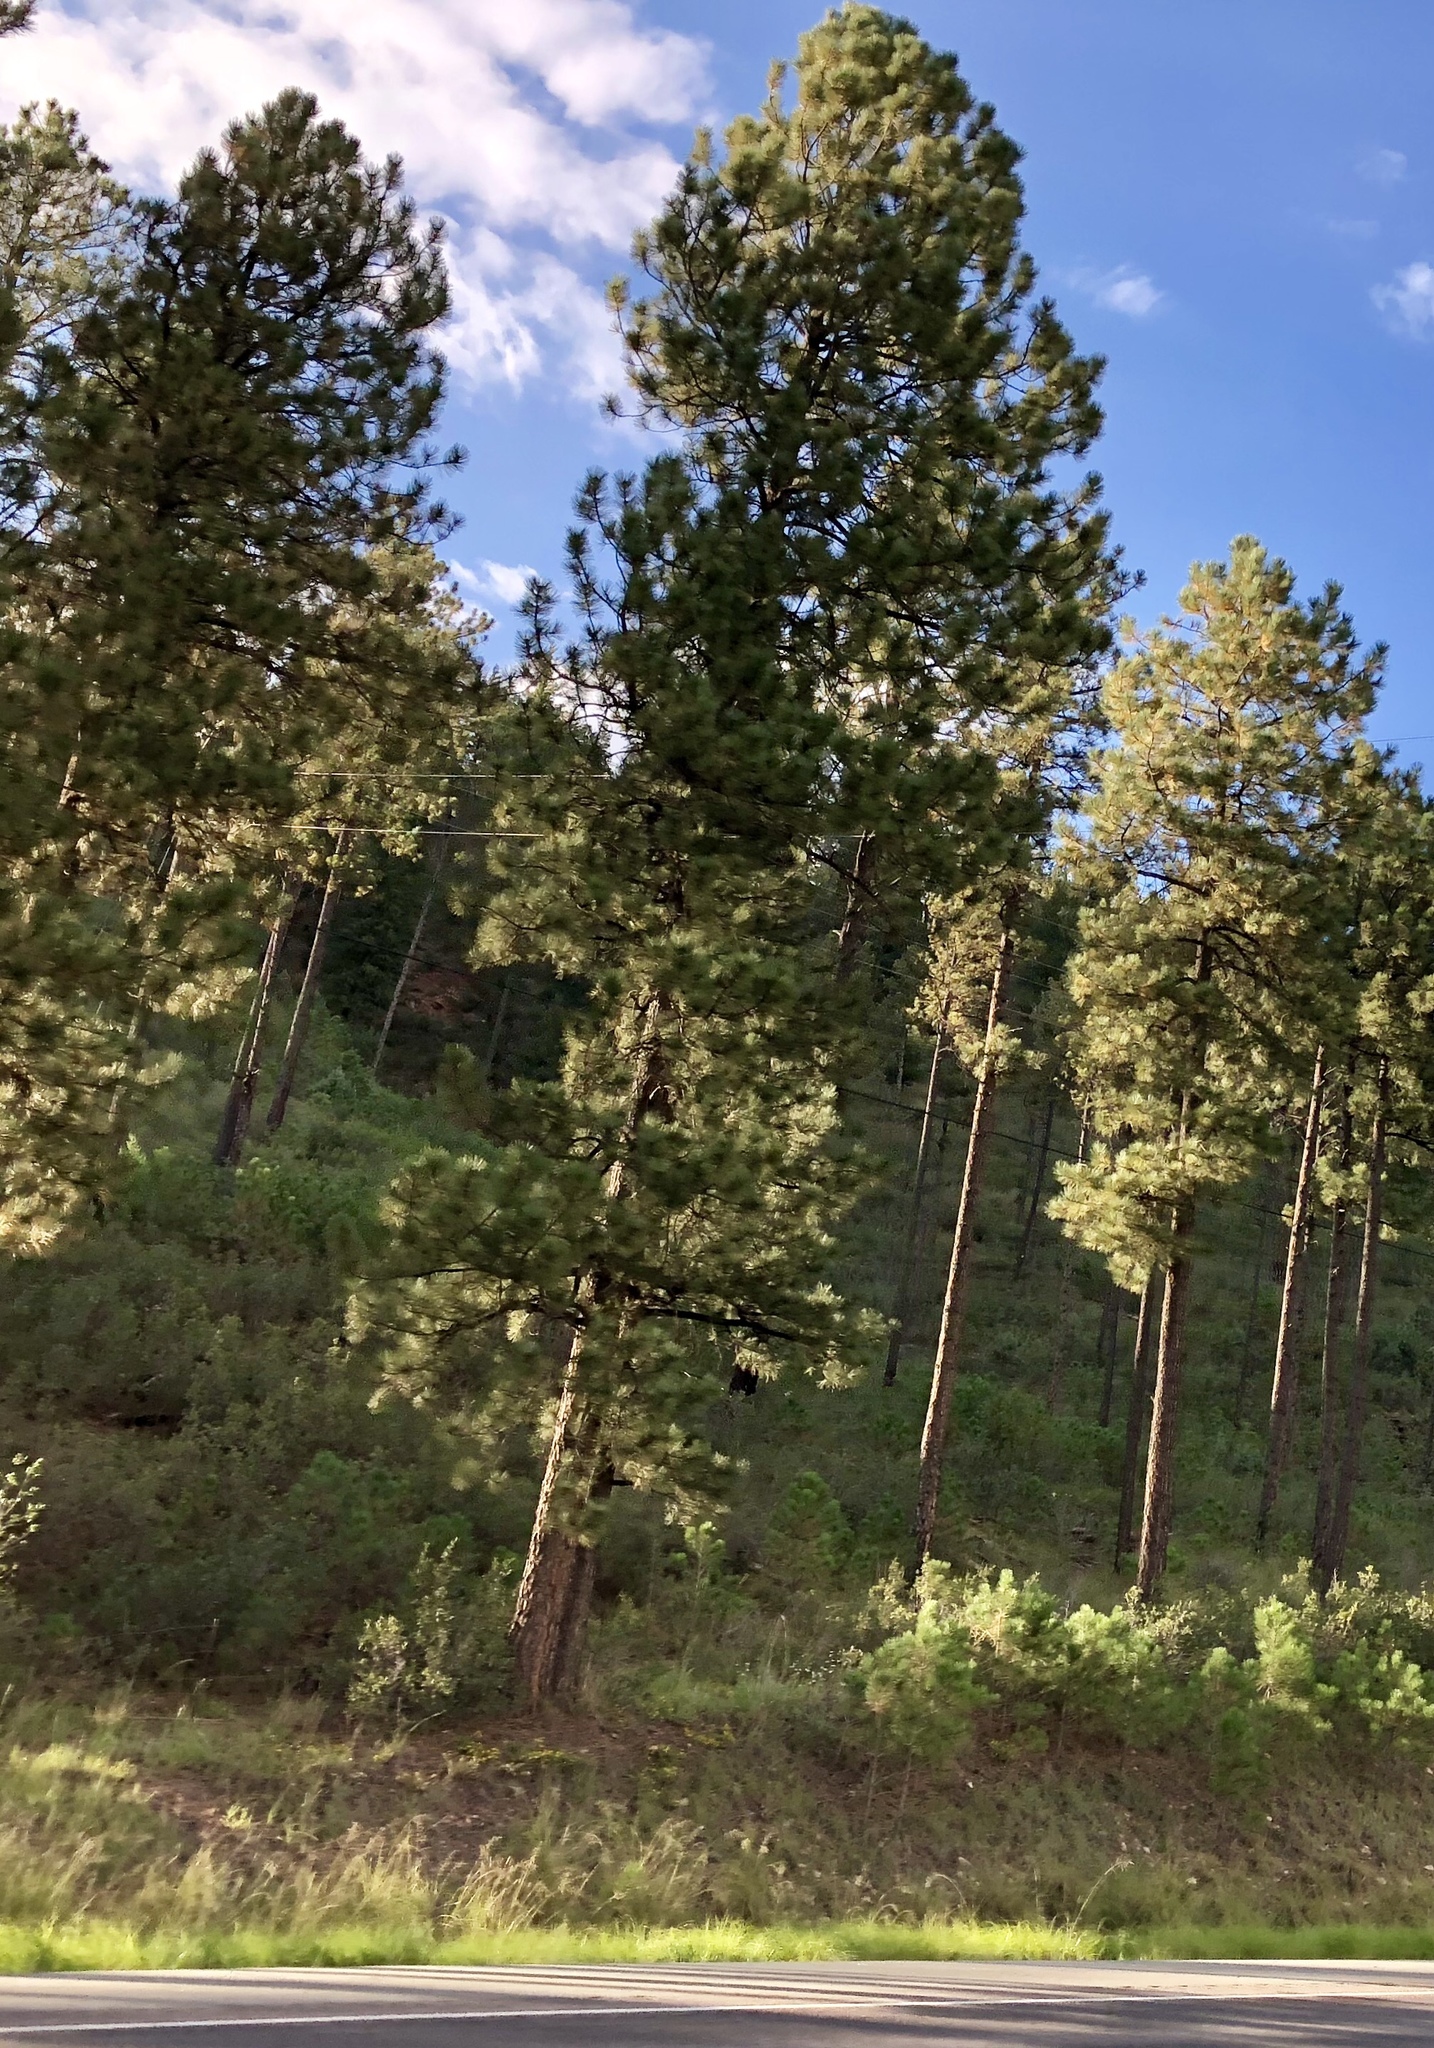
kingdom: Plantae
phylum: Tracheophyta
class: Pinopsida
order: Pinales
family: Pinaceae
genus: Pinus
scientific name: Pinus ponderosa
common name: Western yellow-pine
